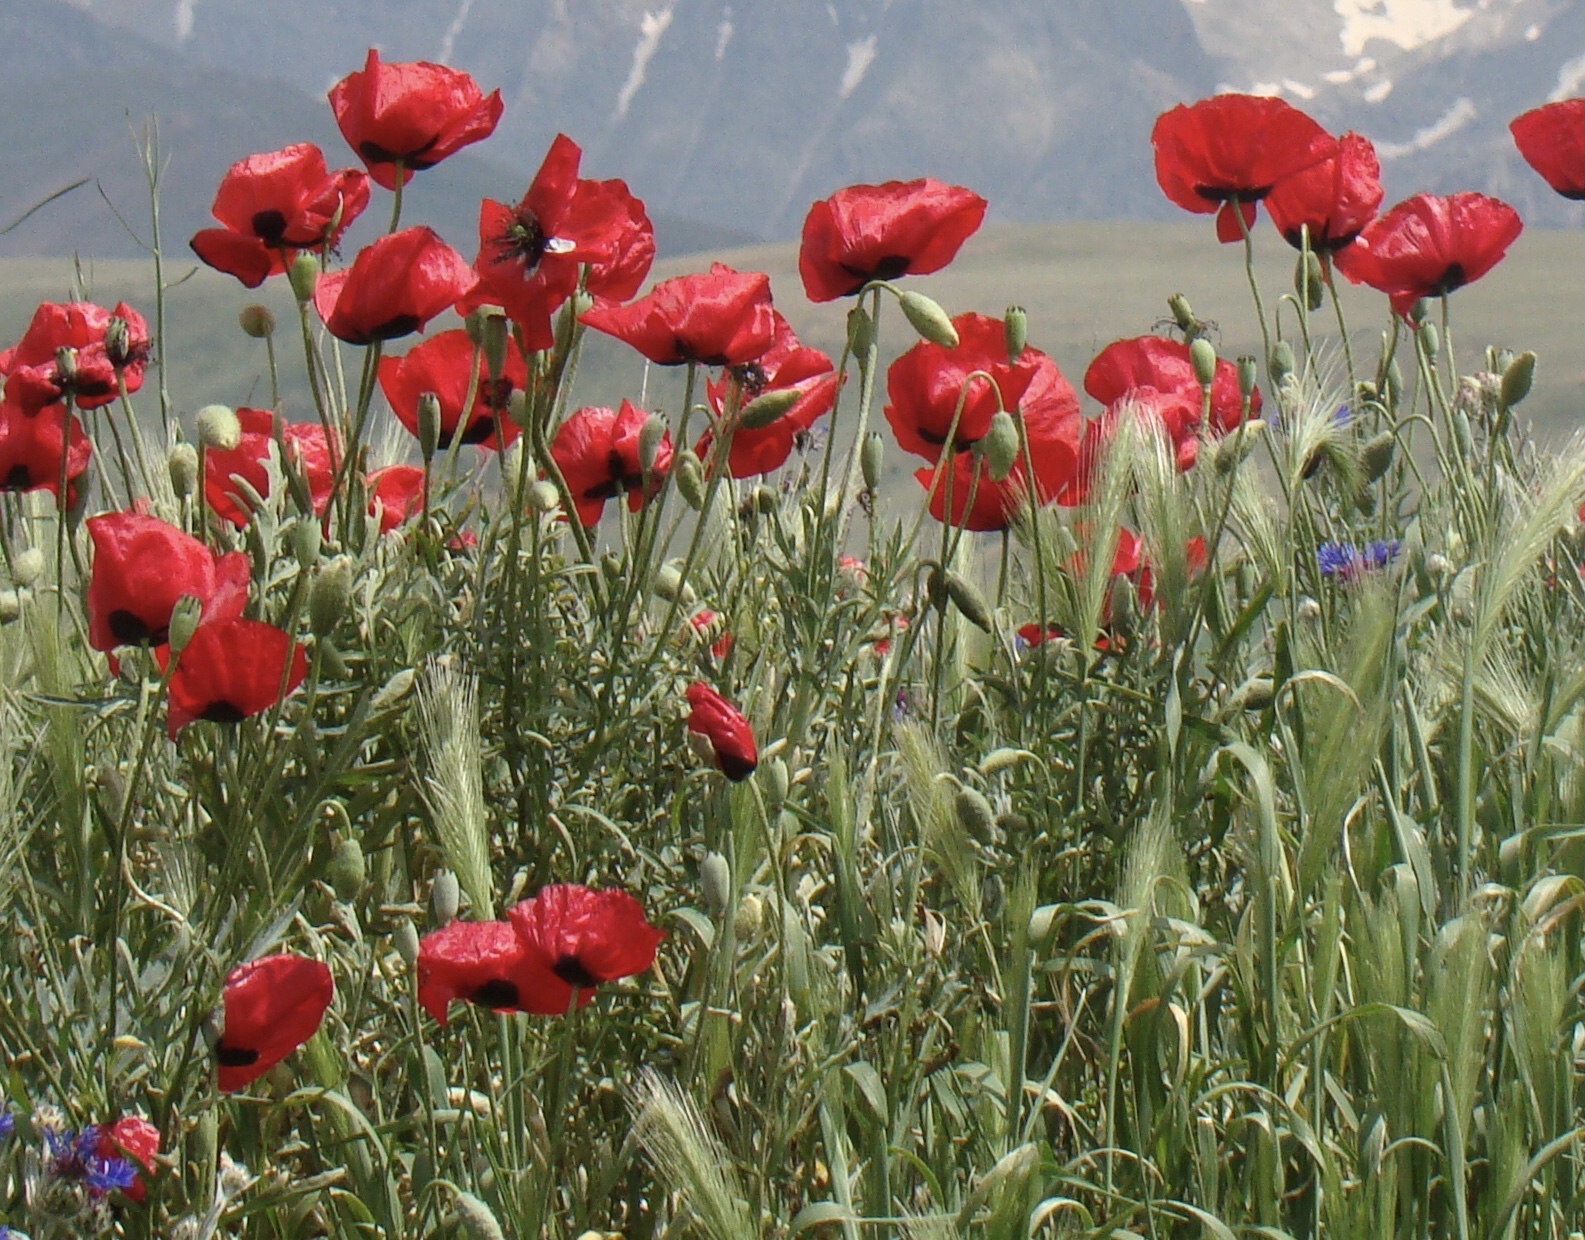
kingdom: Plantae
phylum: Tracheophyta
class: Magnoliopsida
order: Ranunculales
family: Papaveraceae
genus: Papaver
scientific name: Papaver rhoeas
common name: Corn poppy
